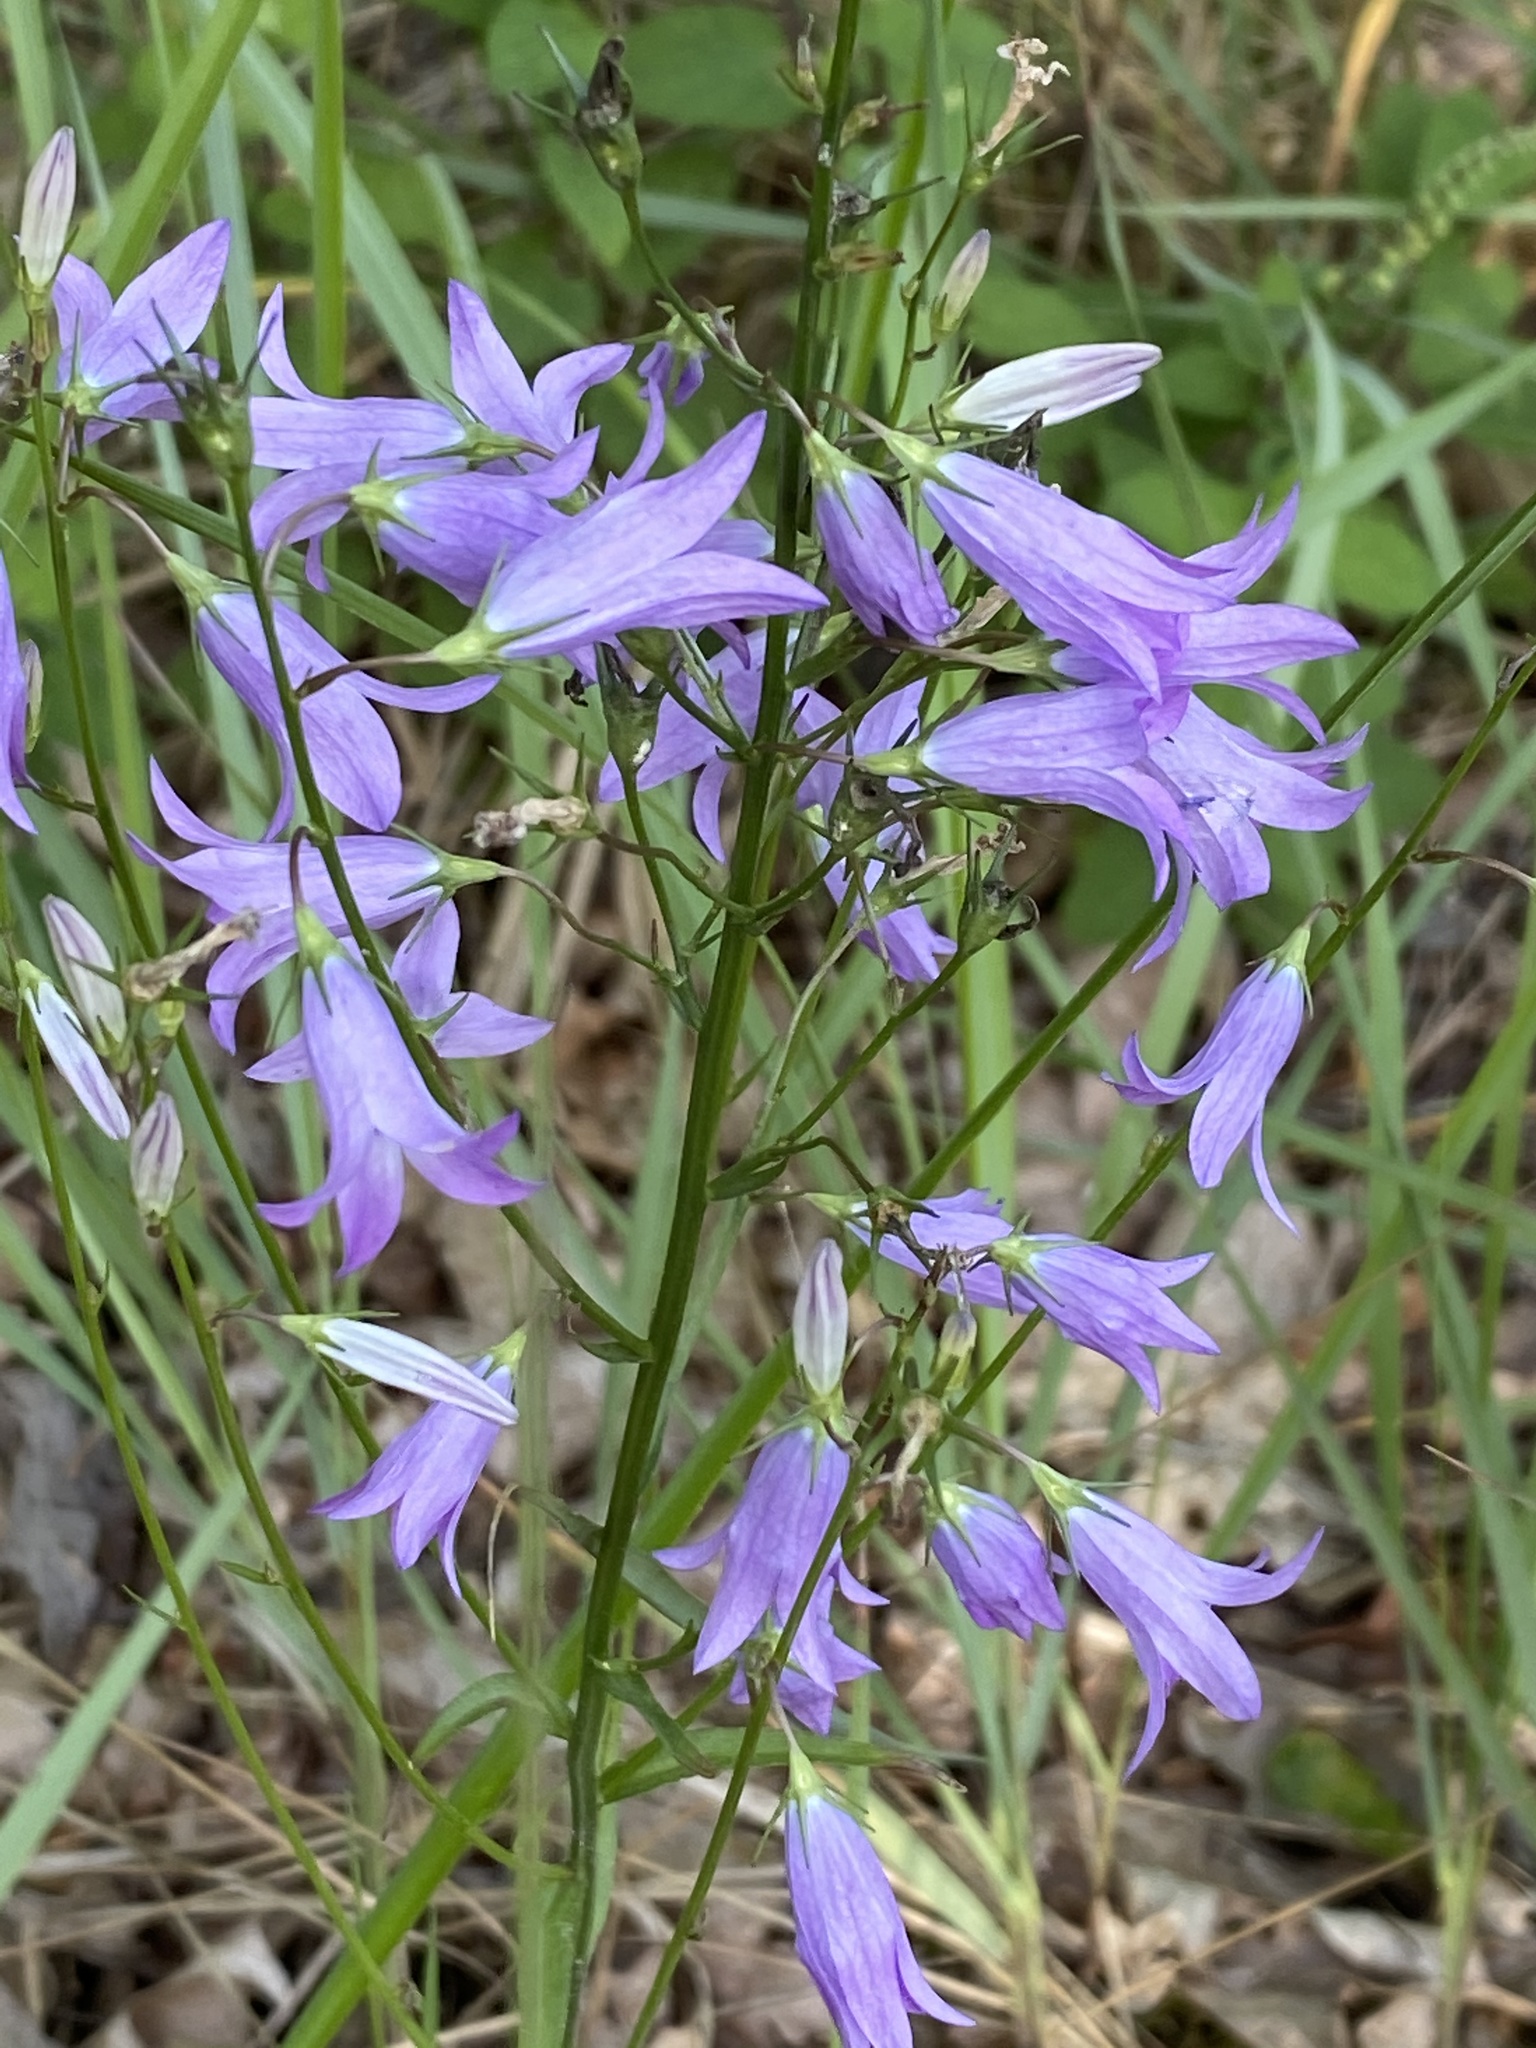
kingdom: Plantae
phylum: Tracheophyta
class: Magnoliopsida
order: Asterales
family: Campanulaceae
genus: Campanula
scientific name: Campanula rapunculus
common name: Rampion bellflower
